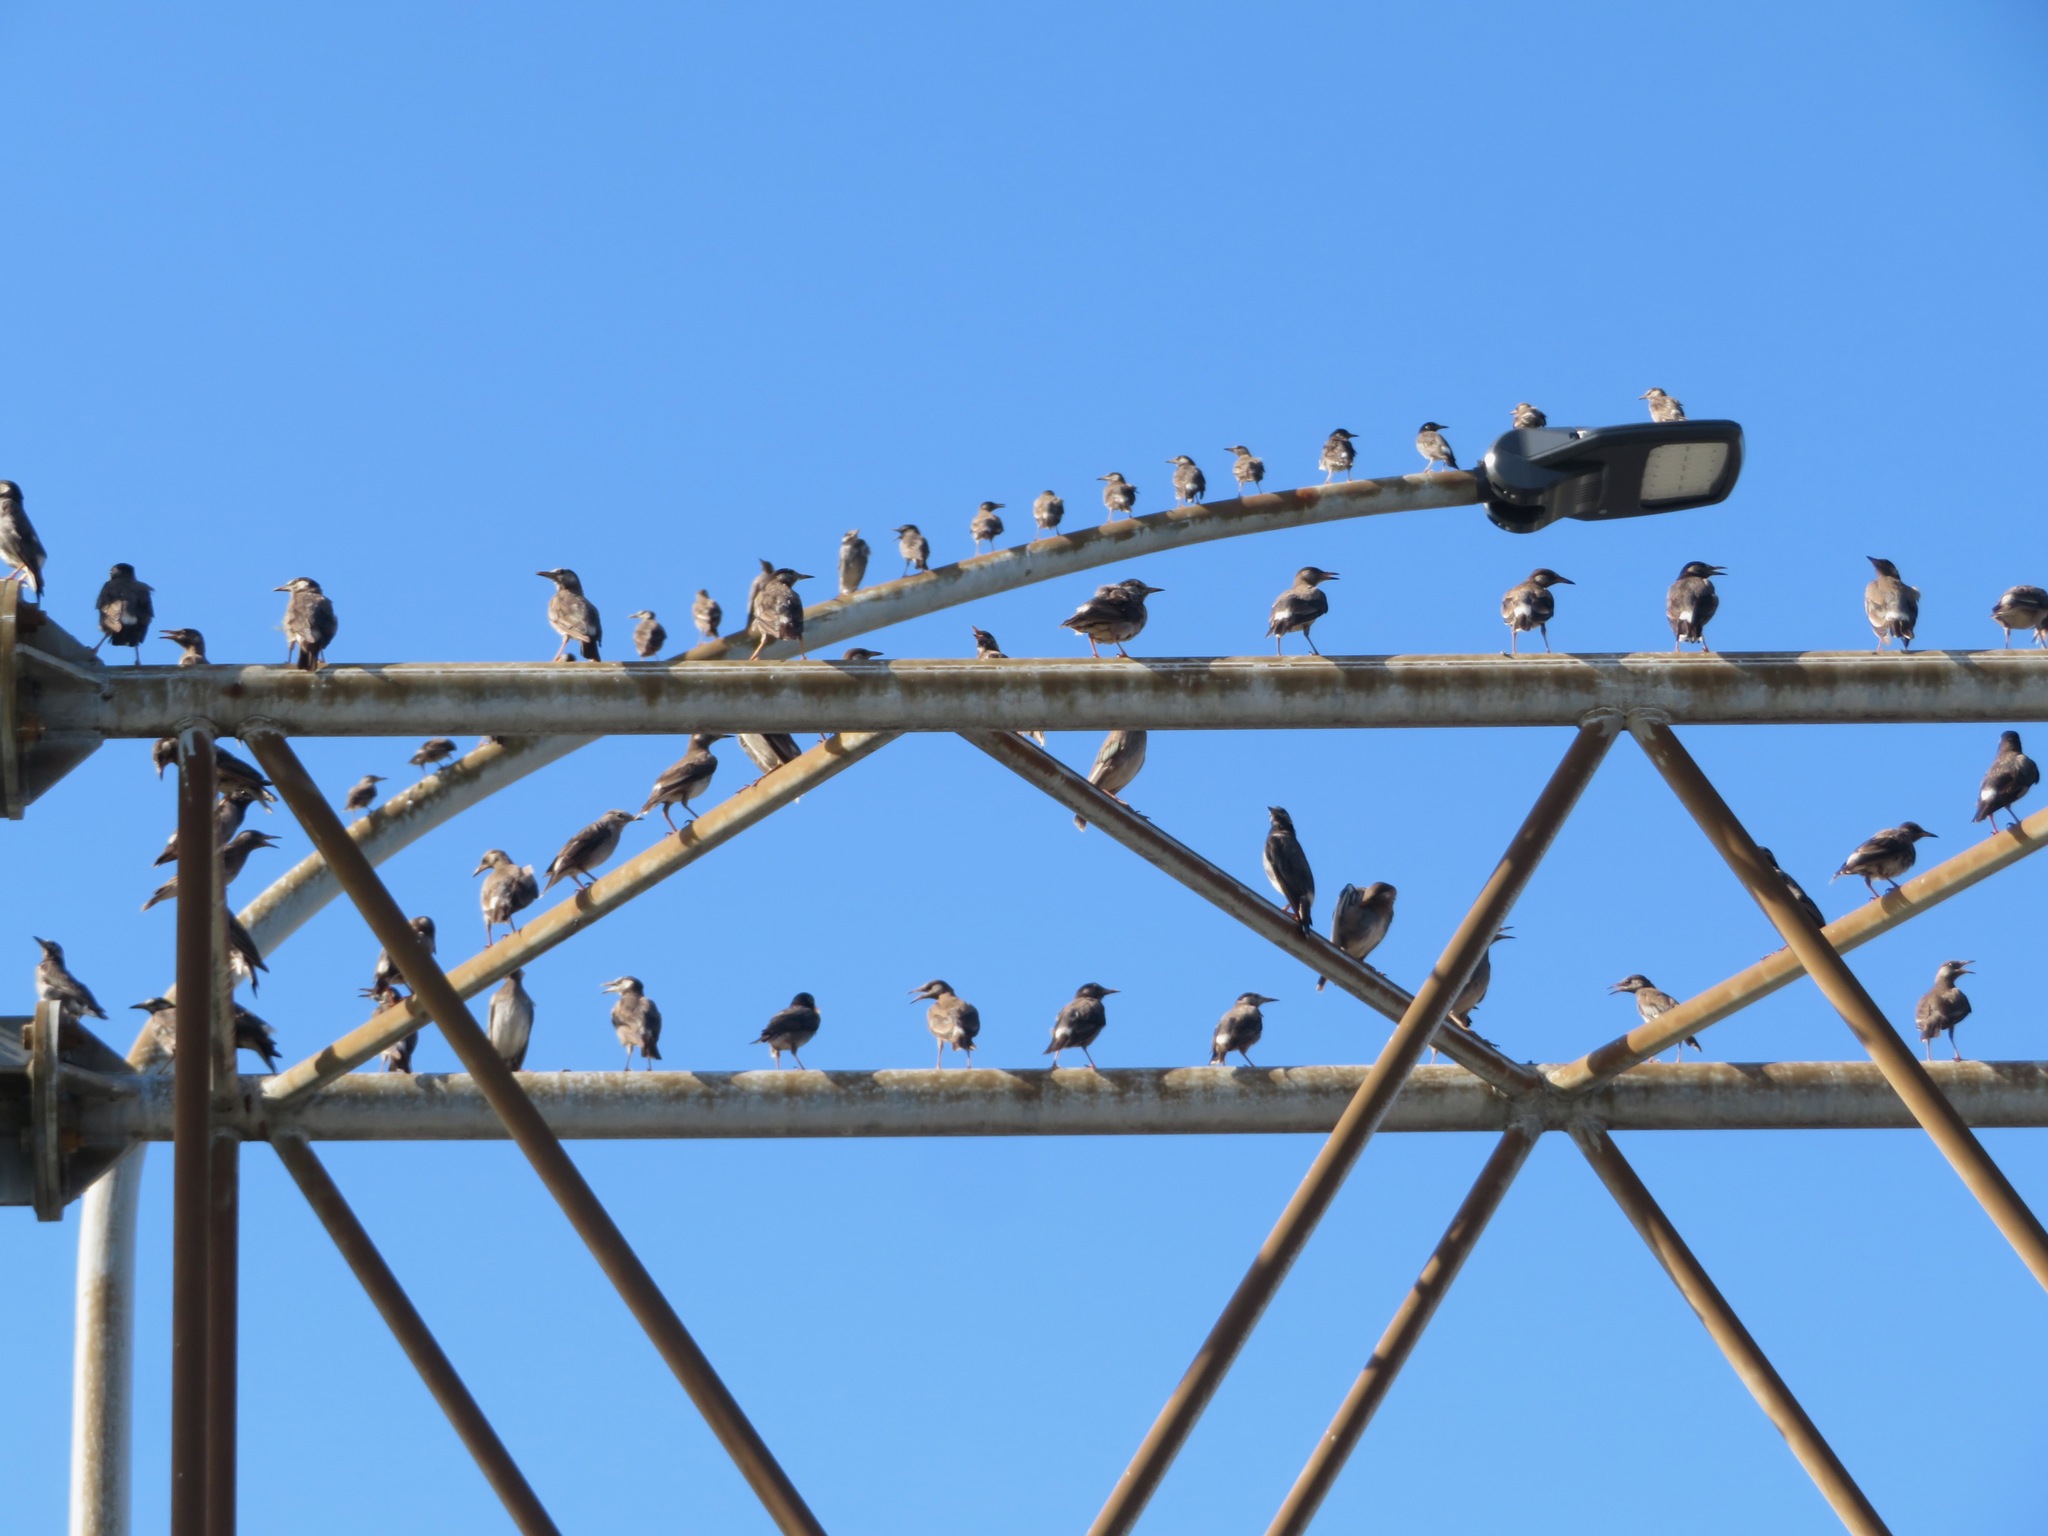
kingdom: Animalia
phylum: Chordata
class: Aves
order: Passeriformes
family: Sturnidae
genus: Spodiopsar
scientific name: Spodiopsar cineraceus
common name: White-cheeked starling
